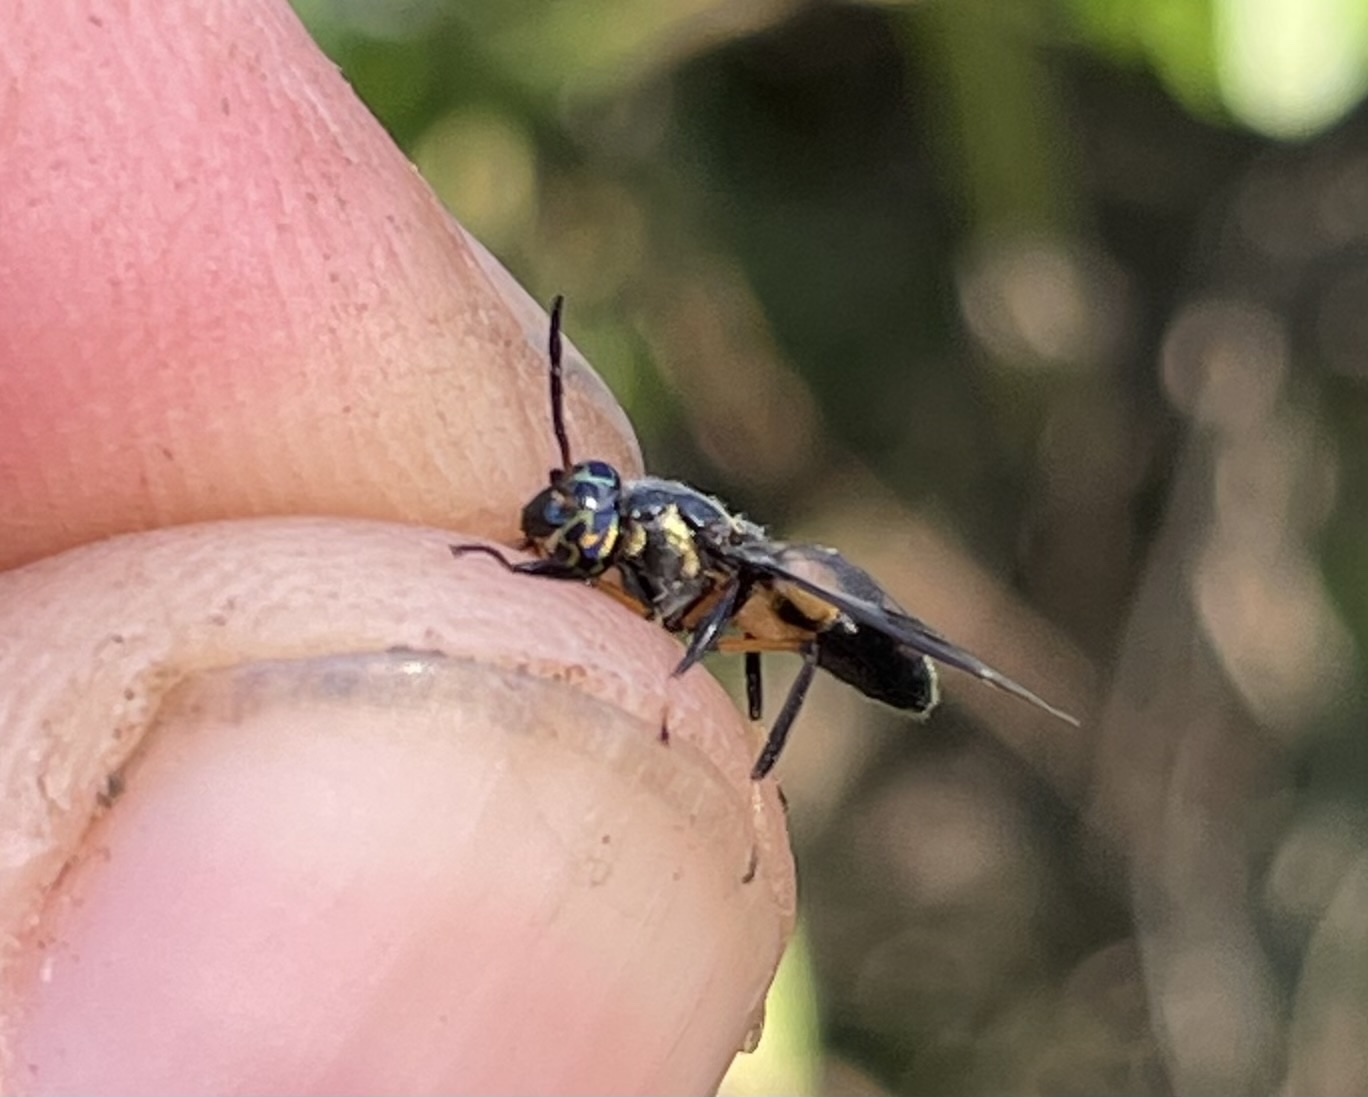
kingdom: Animalia
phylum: Arthropoda
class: Insecta
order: Diptera
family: Tabanidae
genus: Chrysops
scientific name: Chrysops longicornis
